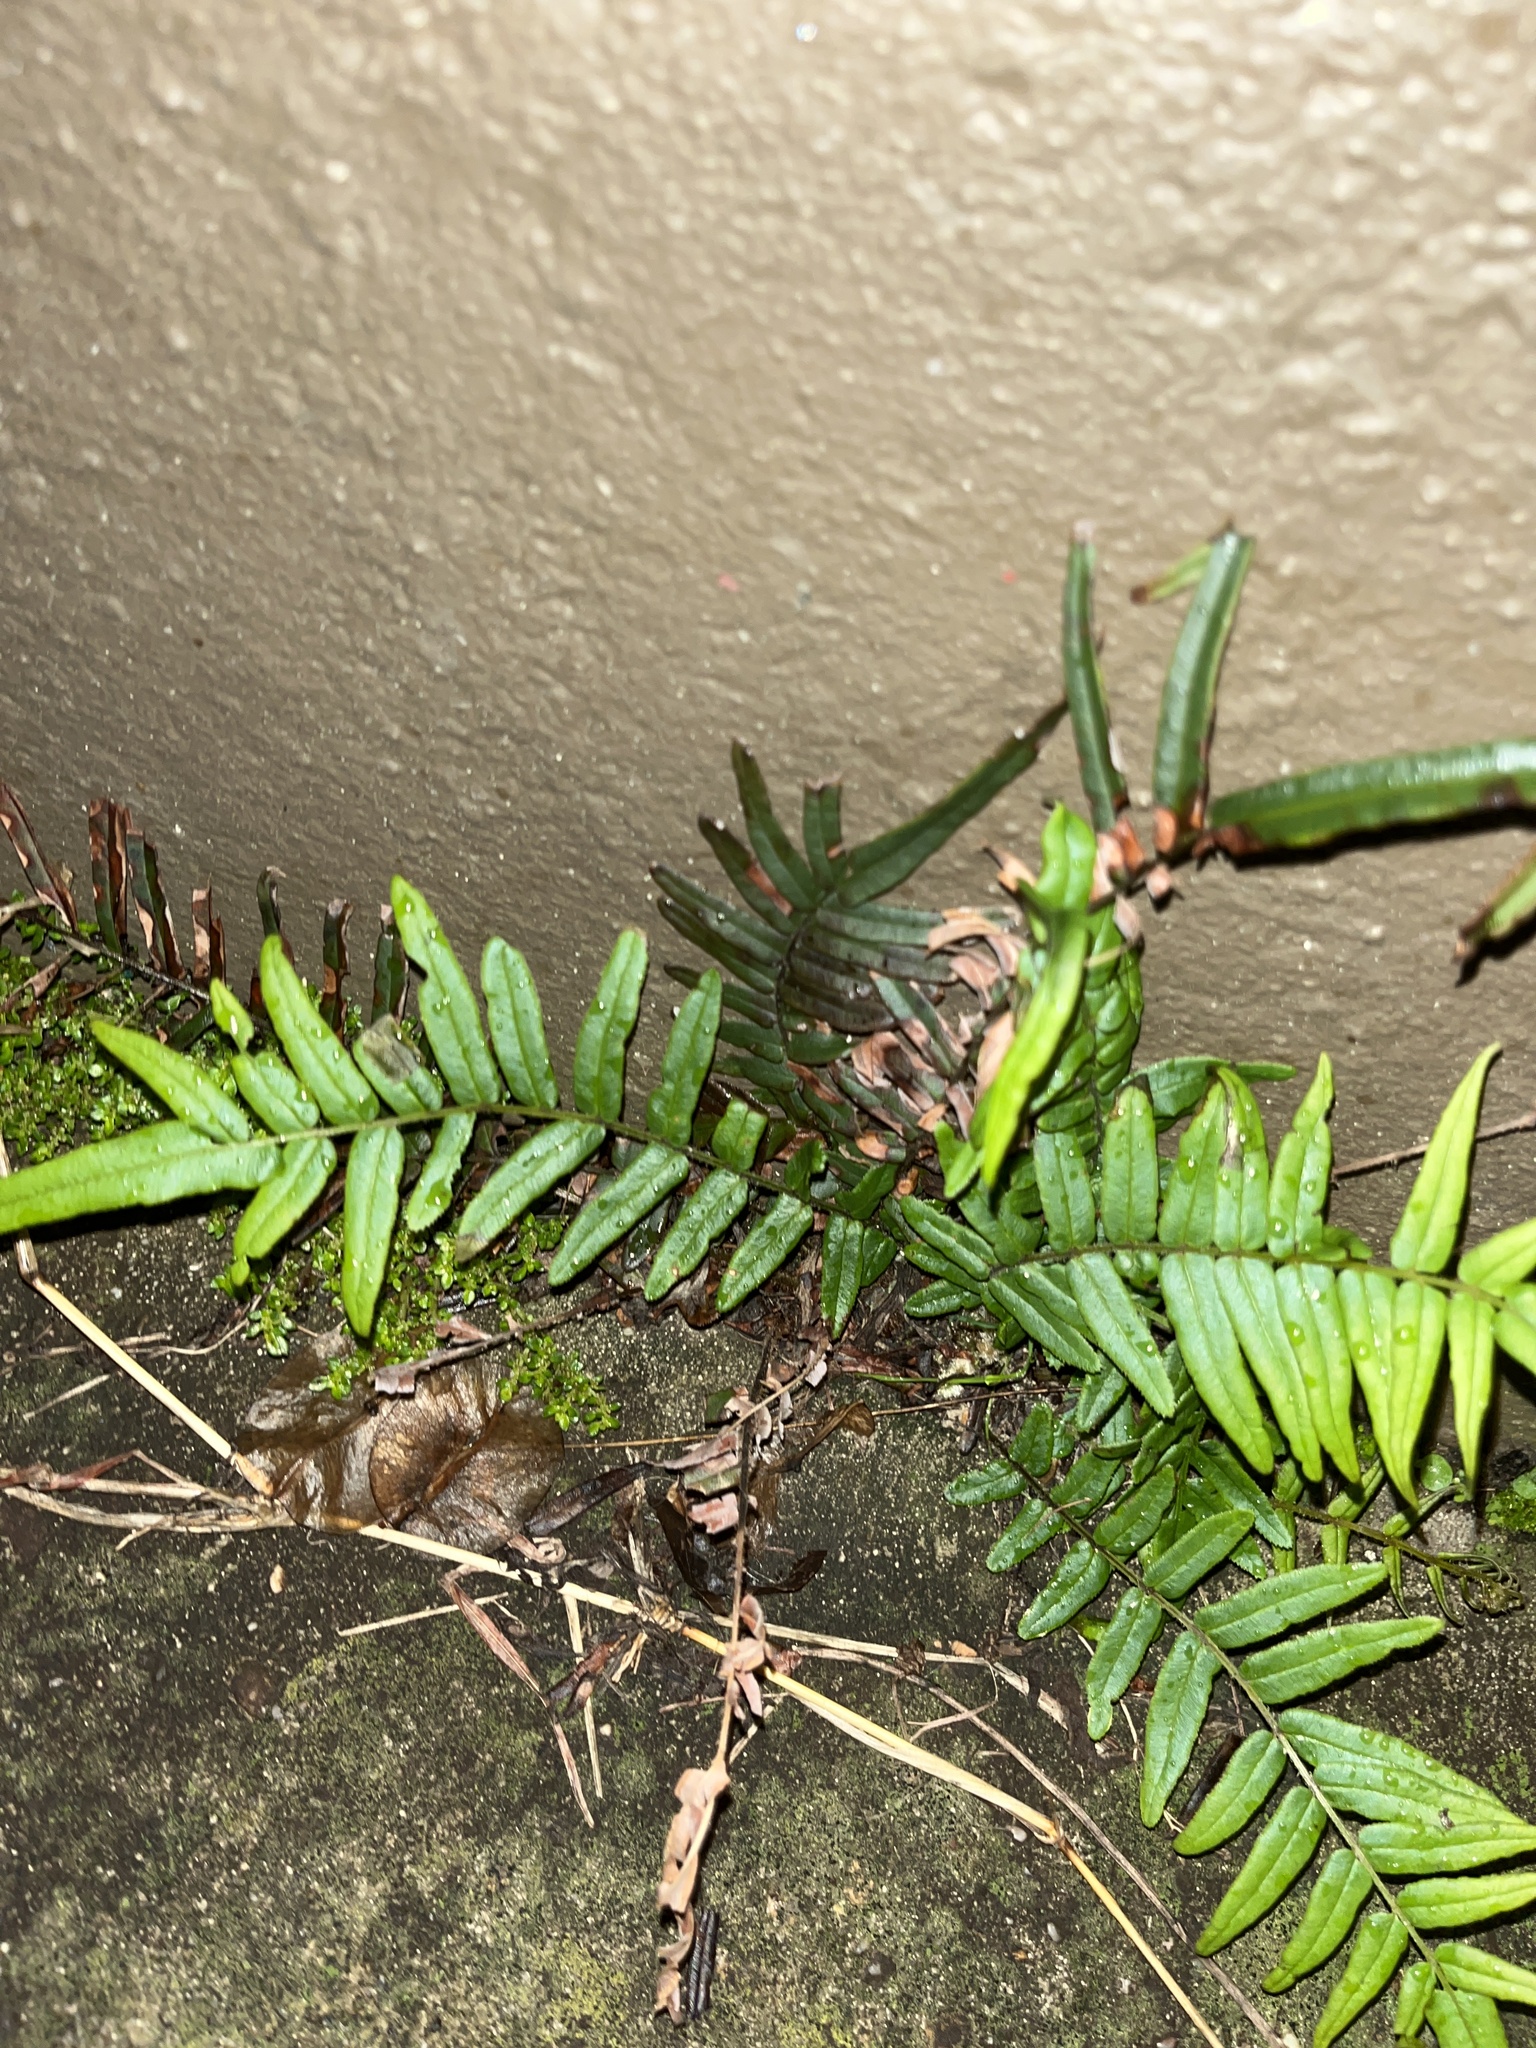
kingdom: Plantae
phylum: Tracheophyta
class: Polypodiopsida
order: Polypodiales
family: Pteridaceae
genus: Pteris
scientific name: Pteris vittata
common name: Ladder brake
